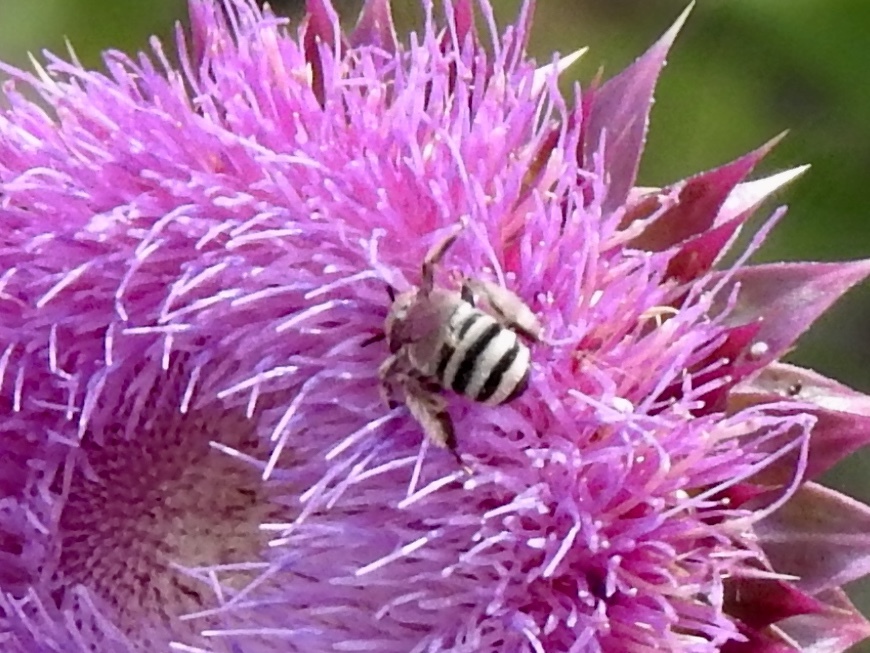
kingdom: Animalia
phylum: Arthropoda
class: Insecta
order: Hymenoptera
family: Apidae
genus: Apidae
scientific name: Apidae
